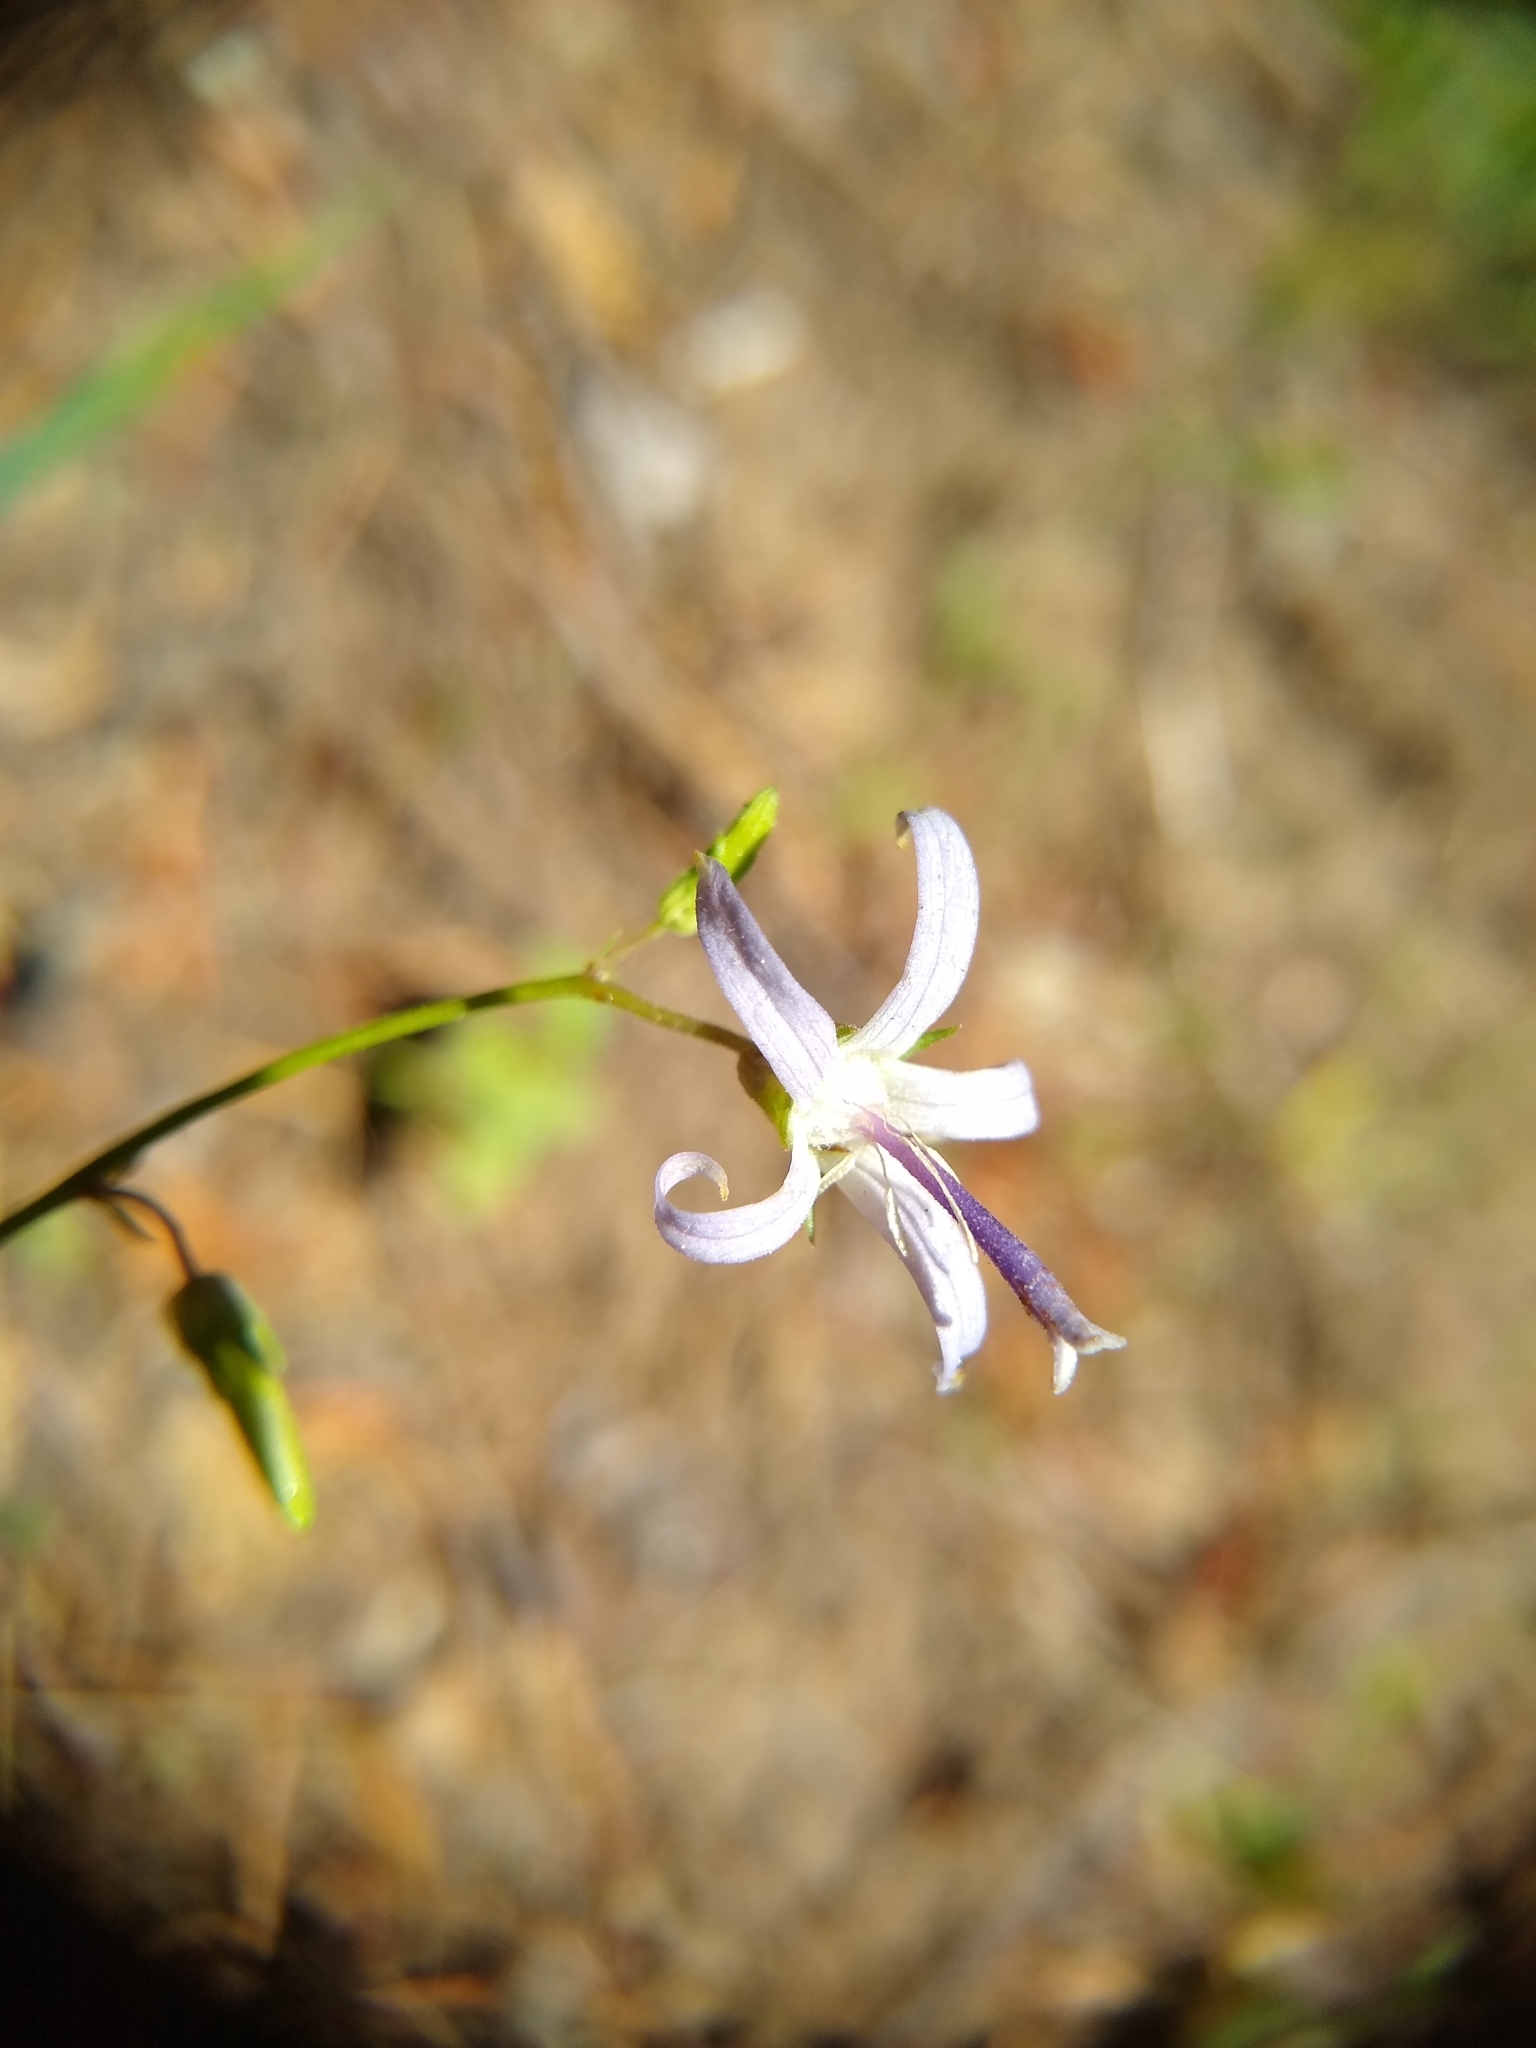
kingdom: Plantae
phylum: Tracheophyta
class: Magnoliopsida
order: Asterales
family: Campanulaceae
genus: Smithiastrum
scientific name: Smithiastrum prenanthoides
